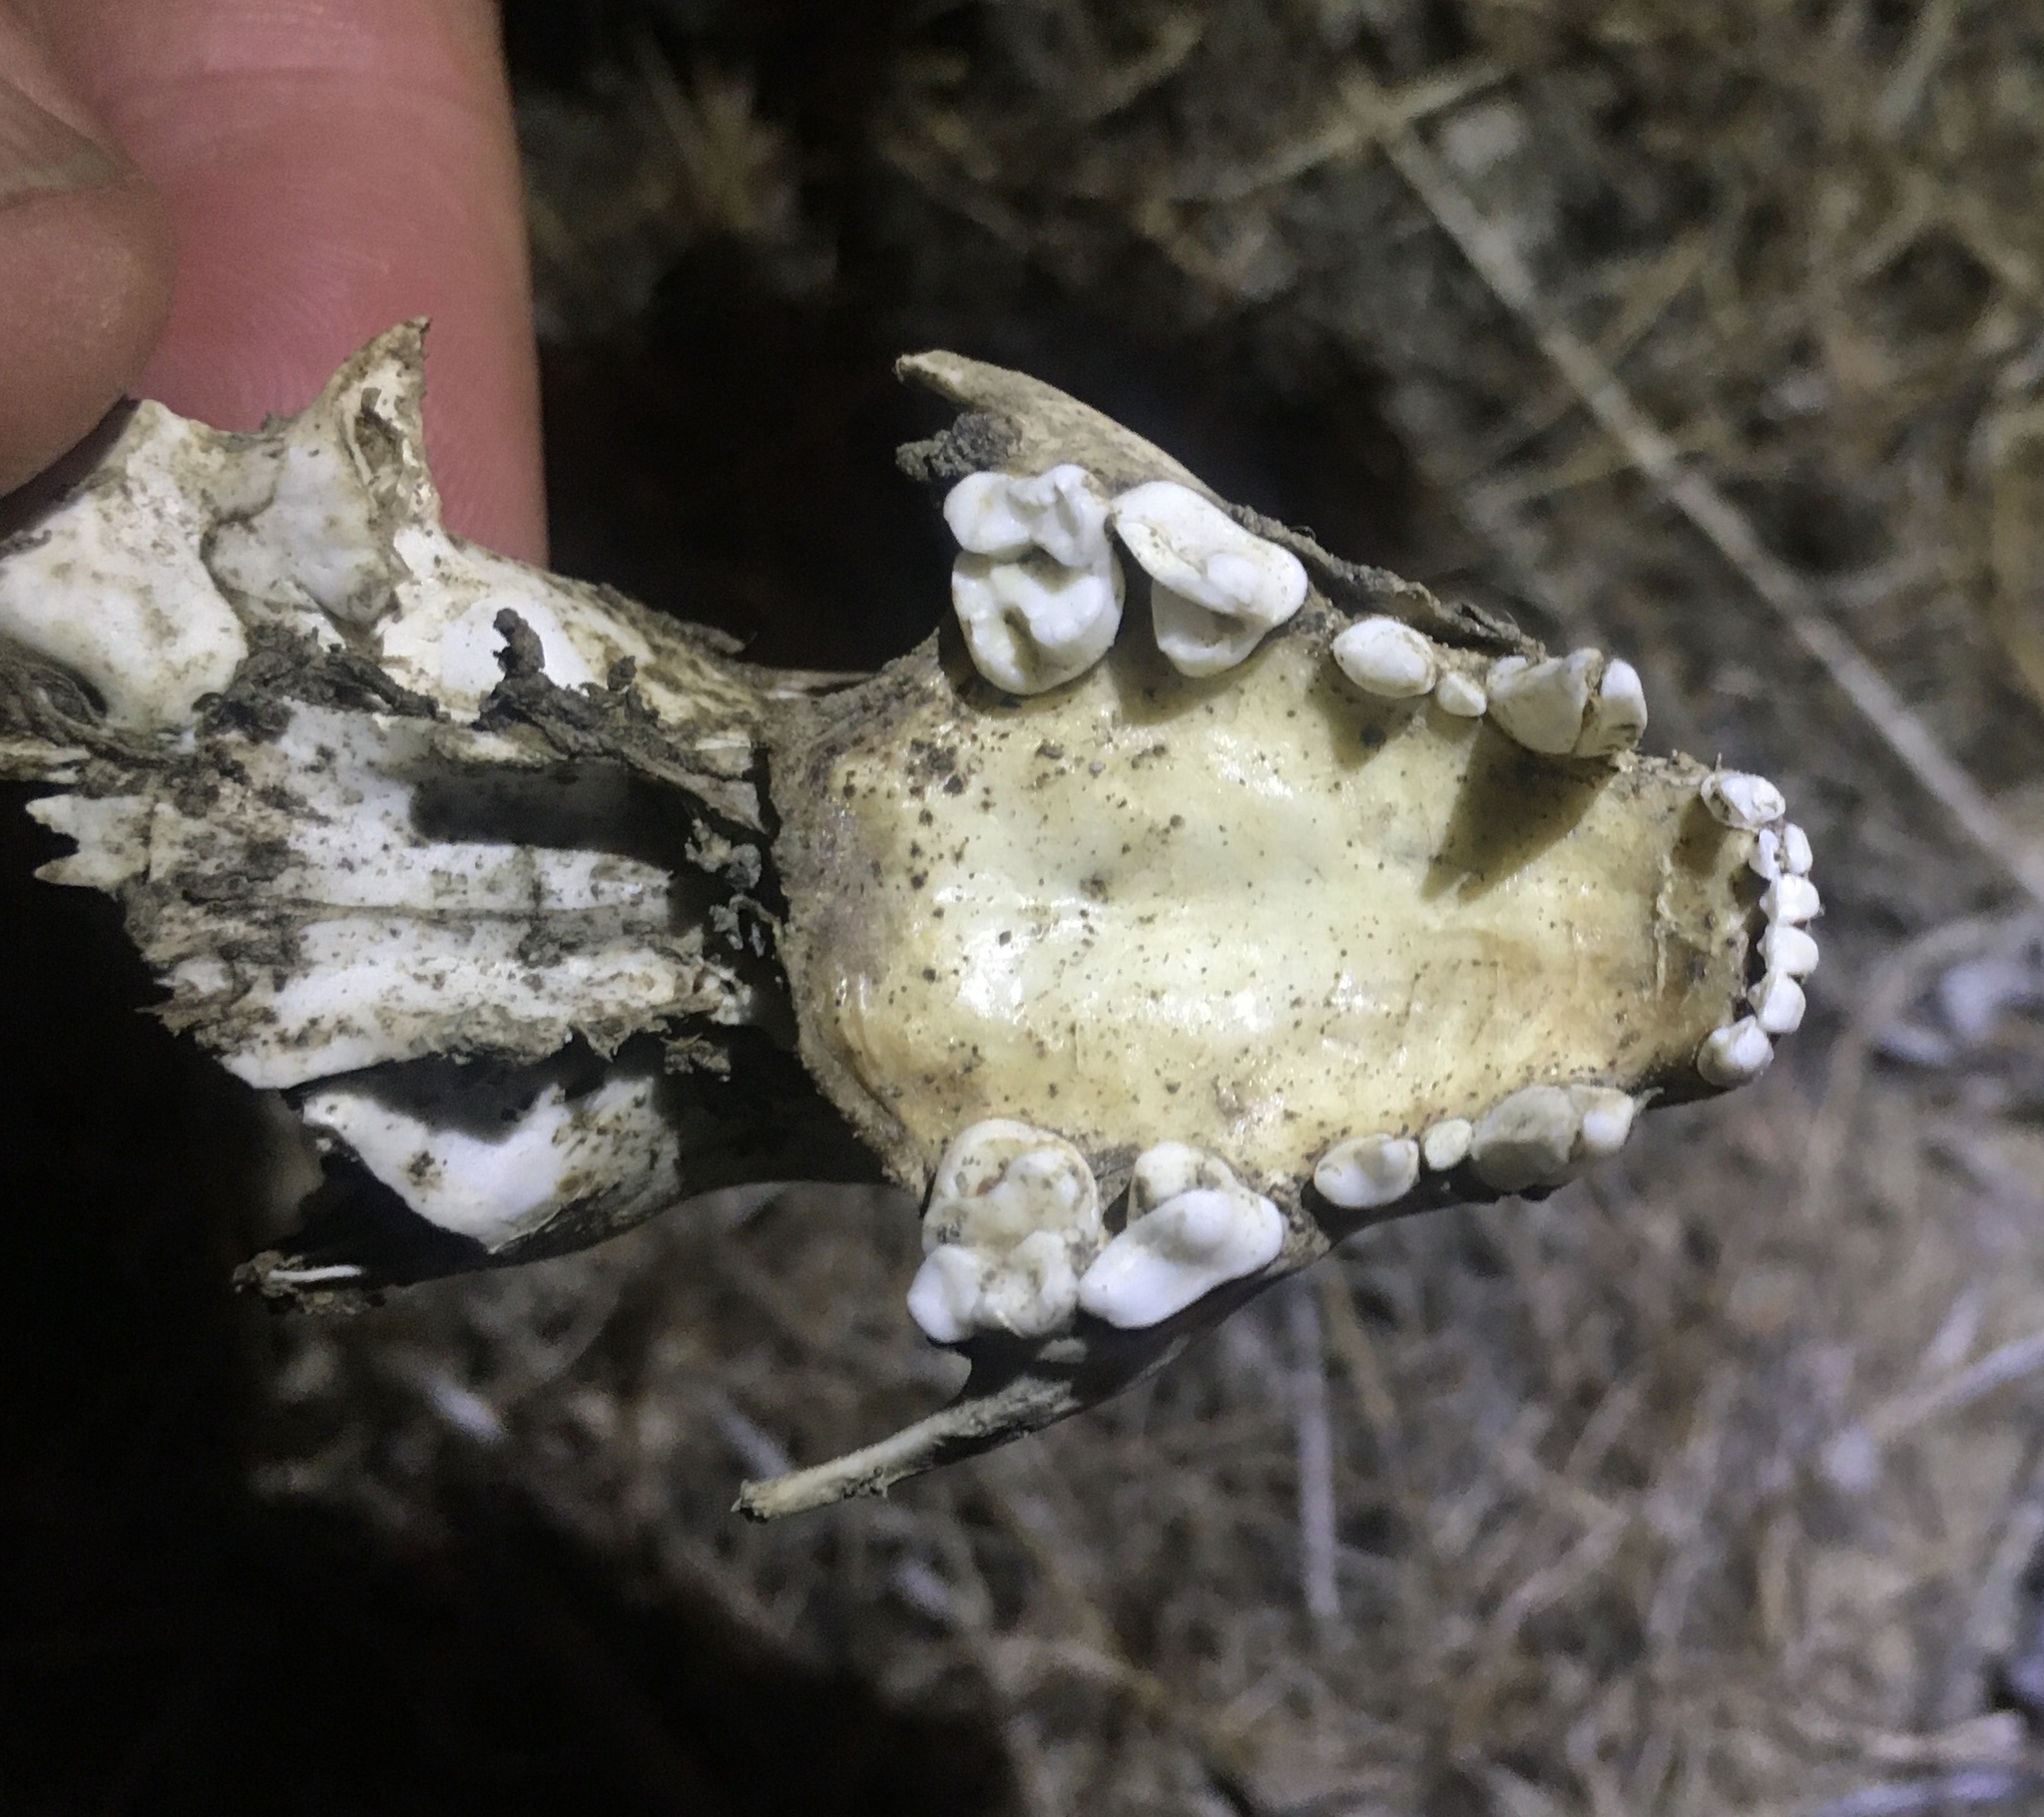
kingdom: Animalia
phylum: Chordata
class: Mammalia
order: Carnivora
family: Mephitidae
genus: Mephitis
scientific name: Mephitis mephitis
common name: Striped skunk
